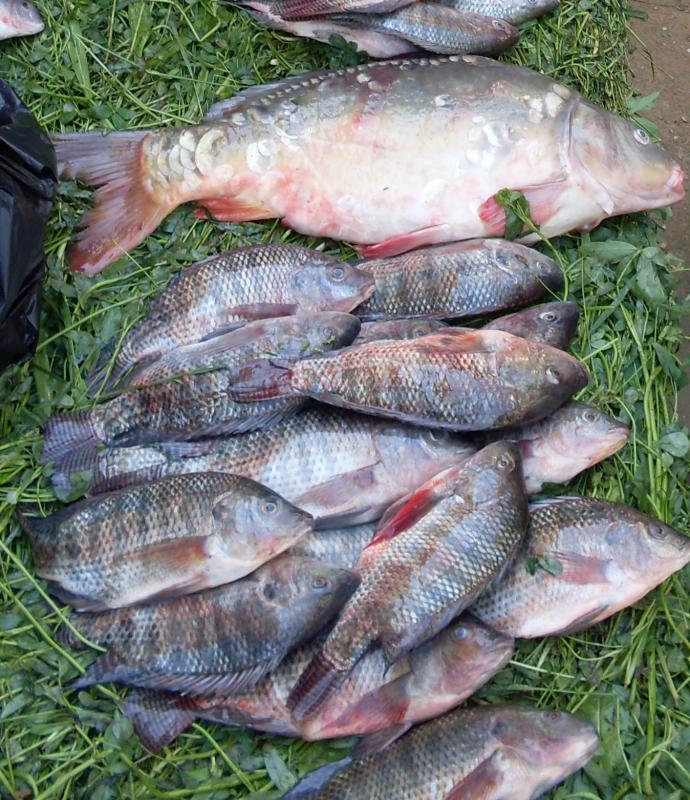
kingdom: Animalia
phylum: Chordata
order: Cypriniformes
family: Cyprinidae
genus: Cyprinus
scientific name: Cyprinus carpio
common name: Common carp
